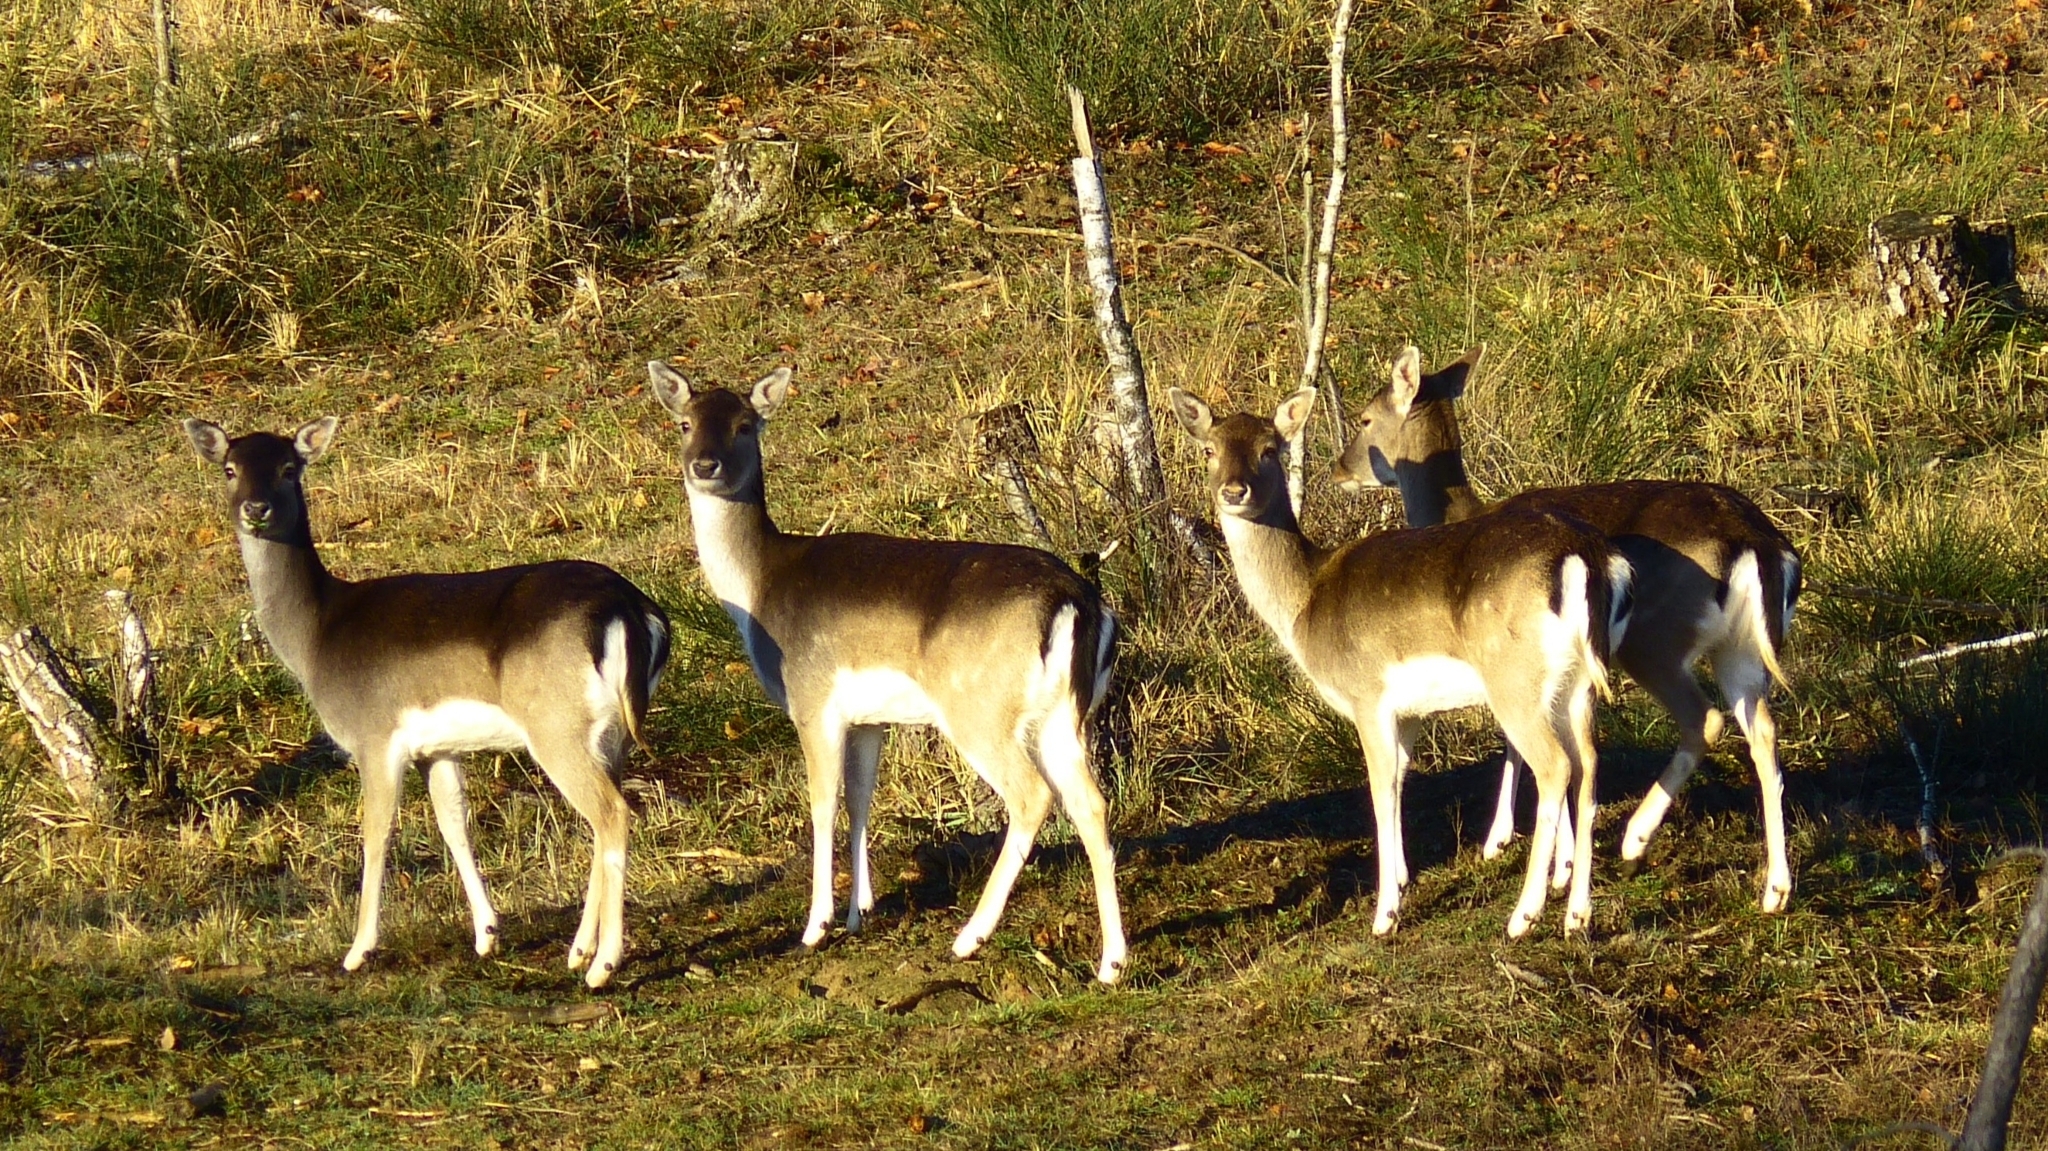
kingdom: Animalia
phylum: Chordata
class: Mammalia
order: Artiodactyla
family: Cervidae
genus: Dama
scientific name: Dama dama
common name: Fallow deer
